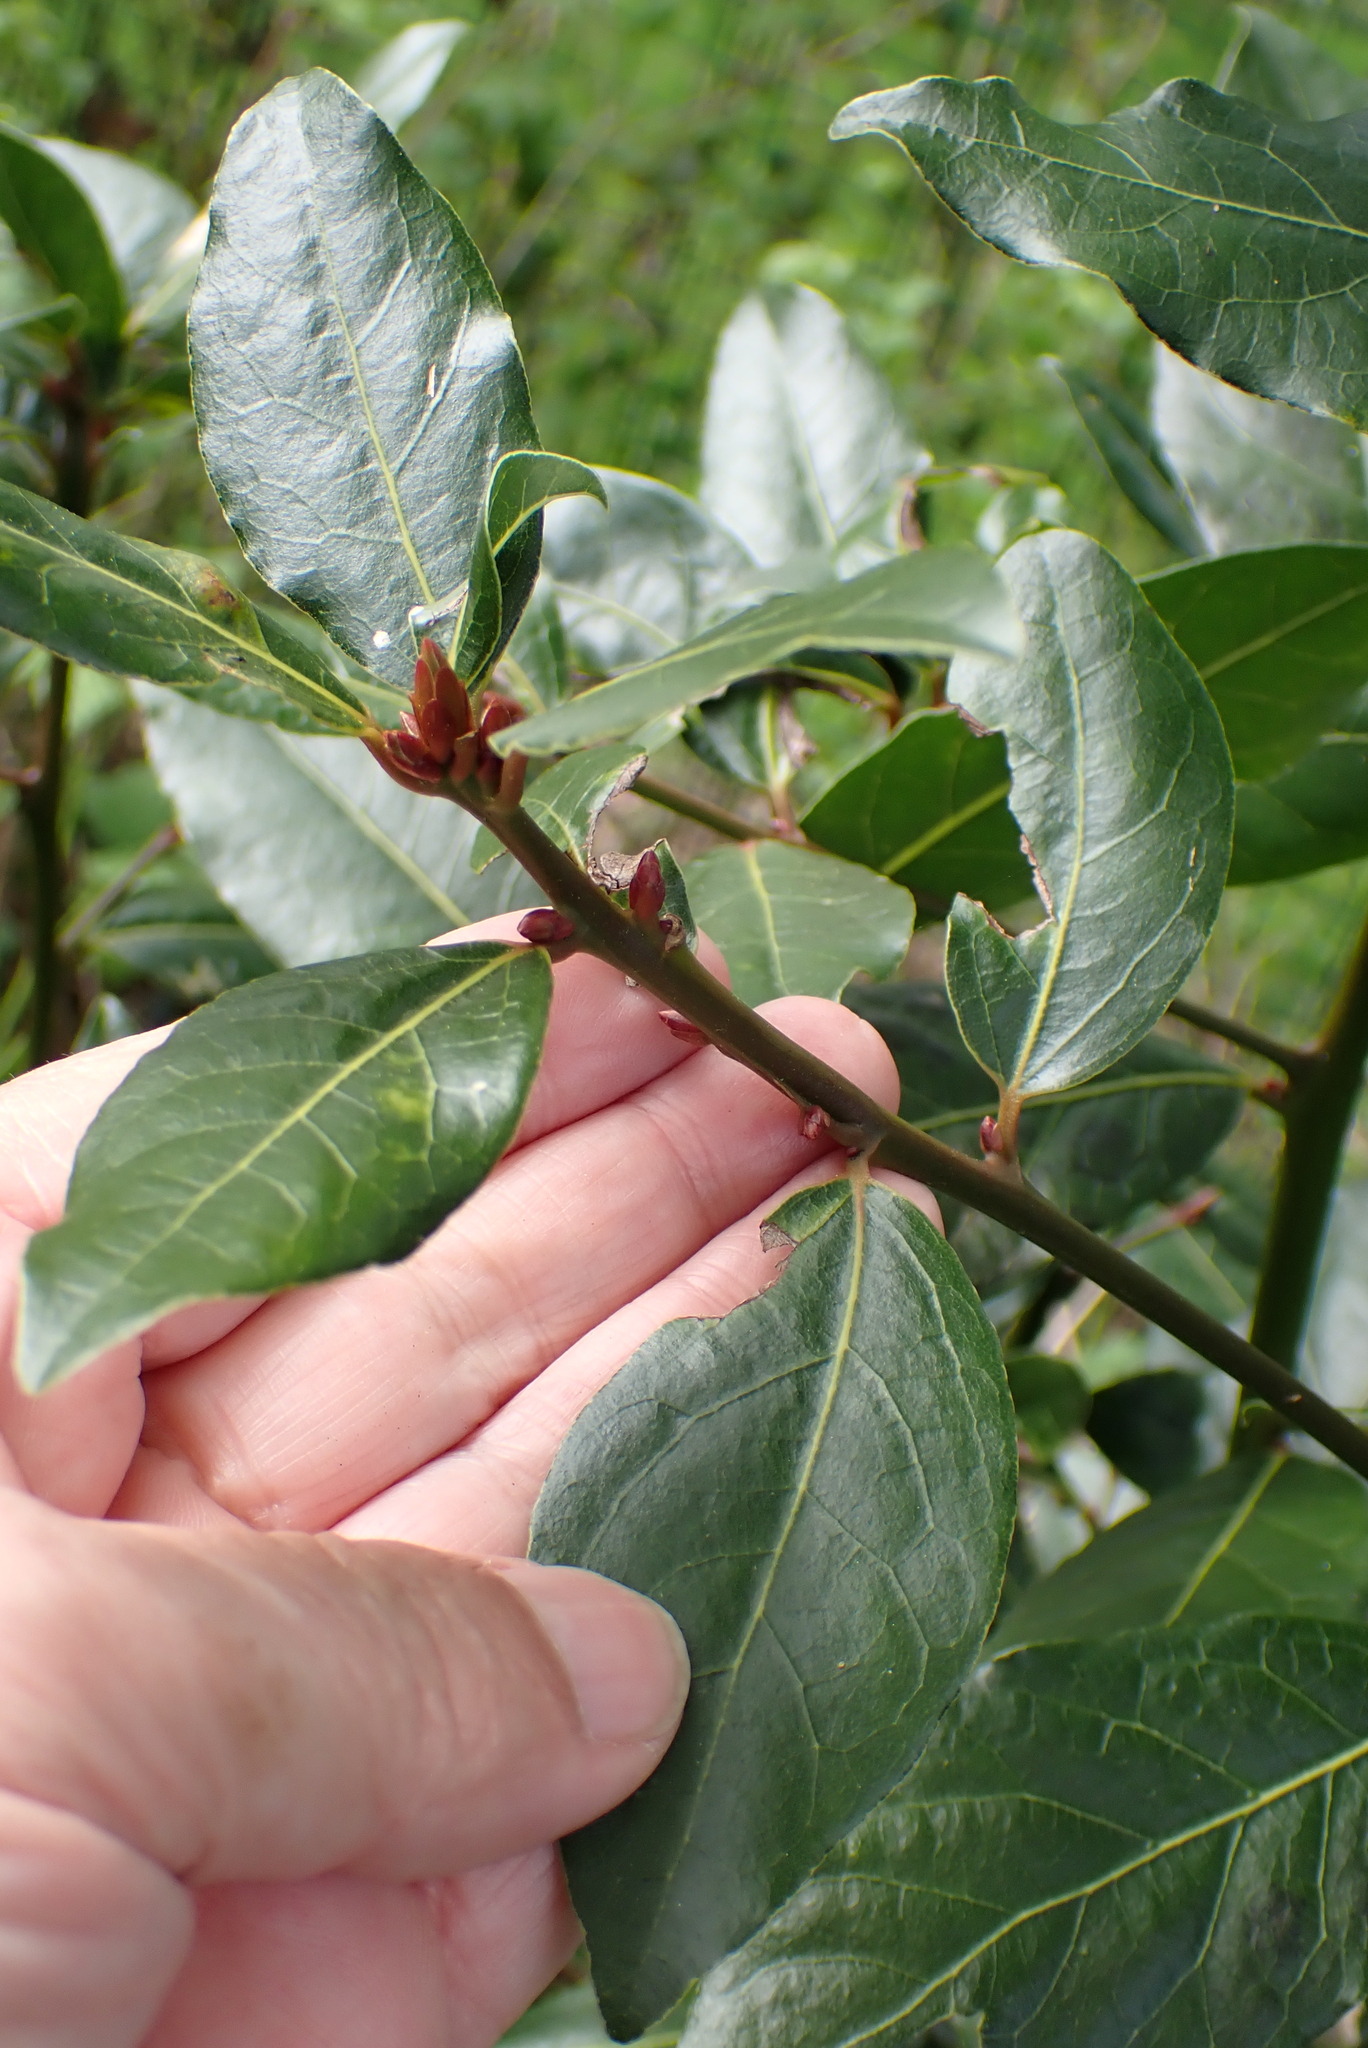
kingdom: Plantae
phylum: Tracheophyta
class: Magnoliopsida
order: Laurales
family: Lauraceae
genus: Laurus
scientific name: Laurus nobilis
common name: Bay
